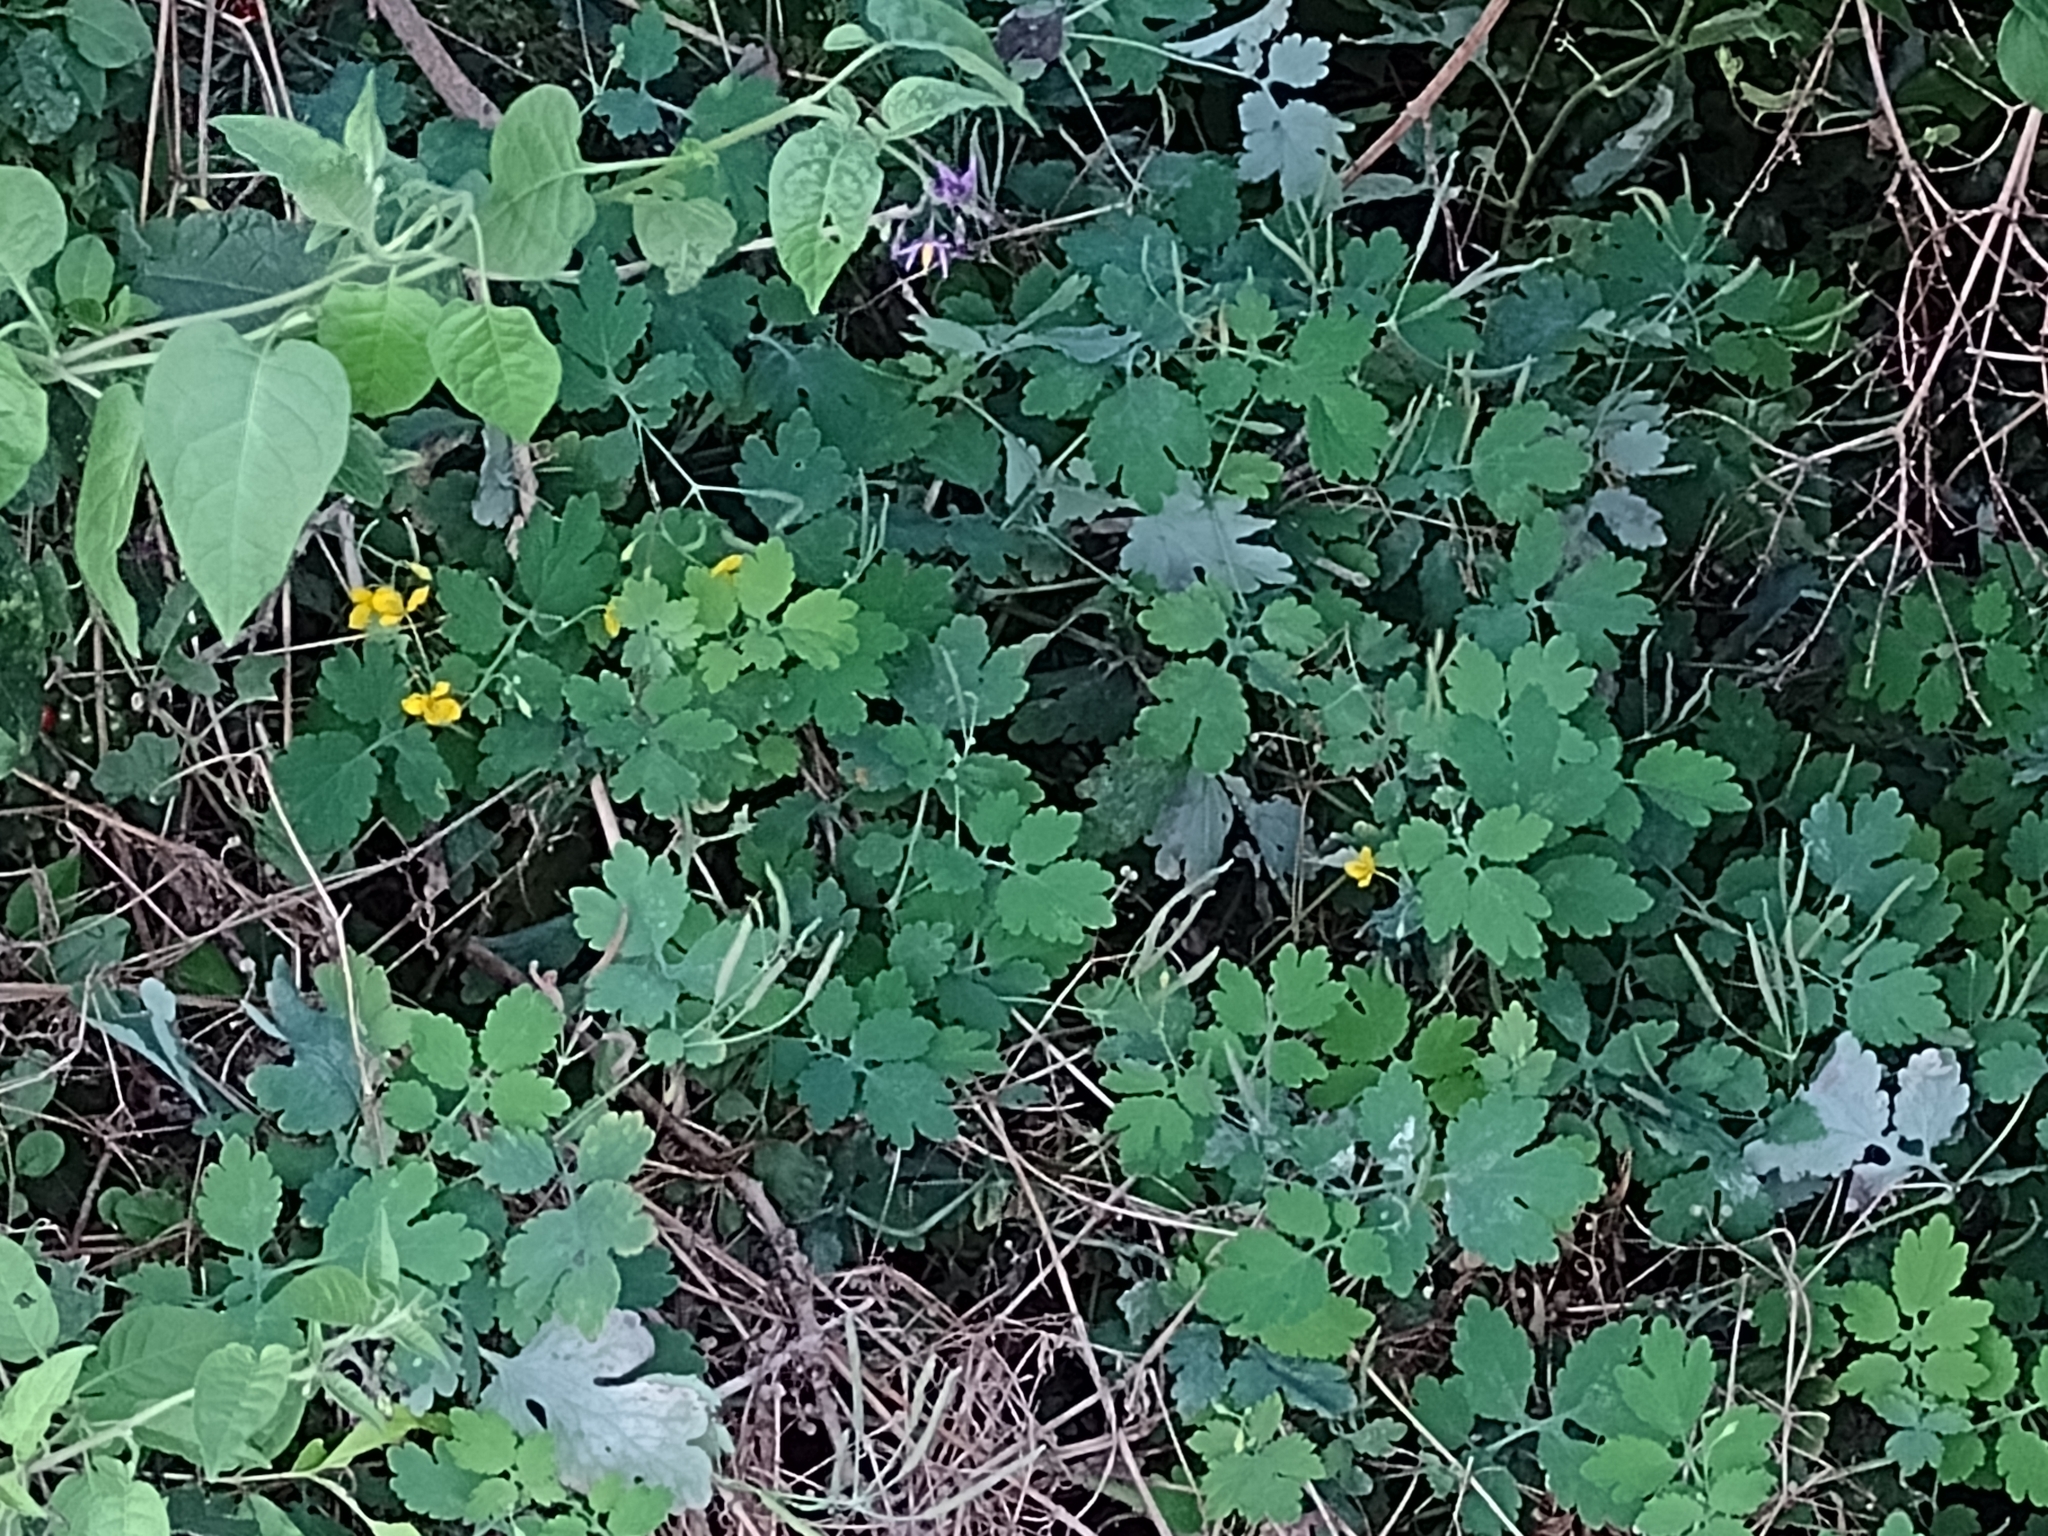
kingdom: Plantae
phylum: Tracheophyta
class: Magnoliopsida
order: Ranunculales
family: Papaveraceae
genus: Chelidonium
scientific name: Chelidonium majus
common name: Greater celandine
